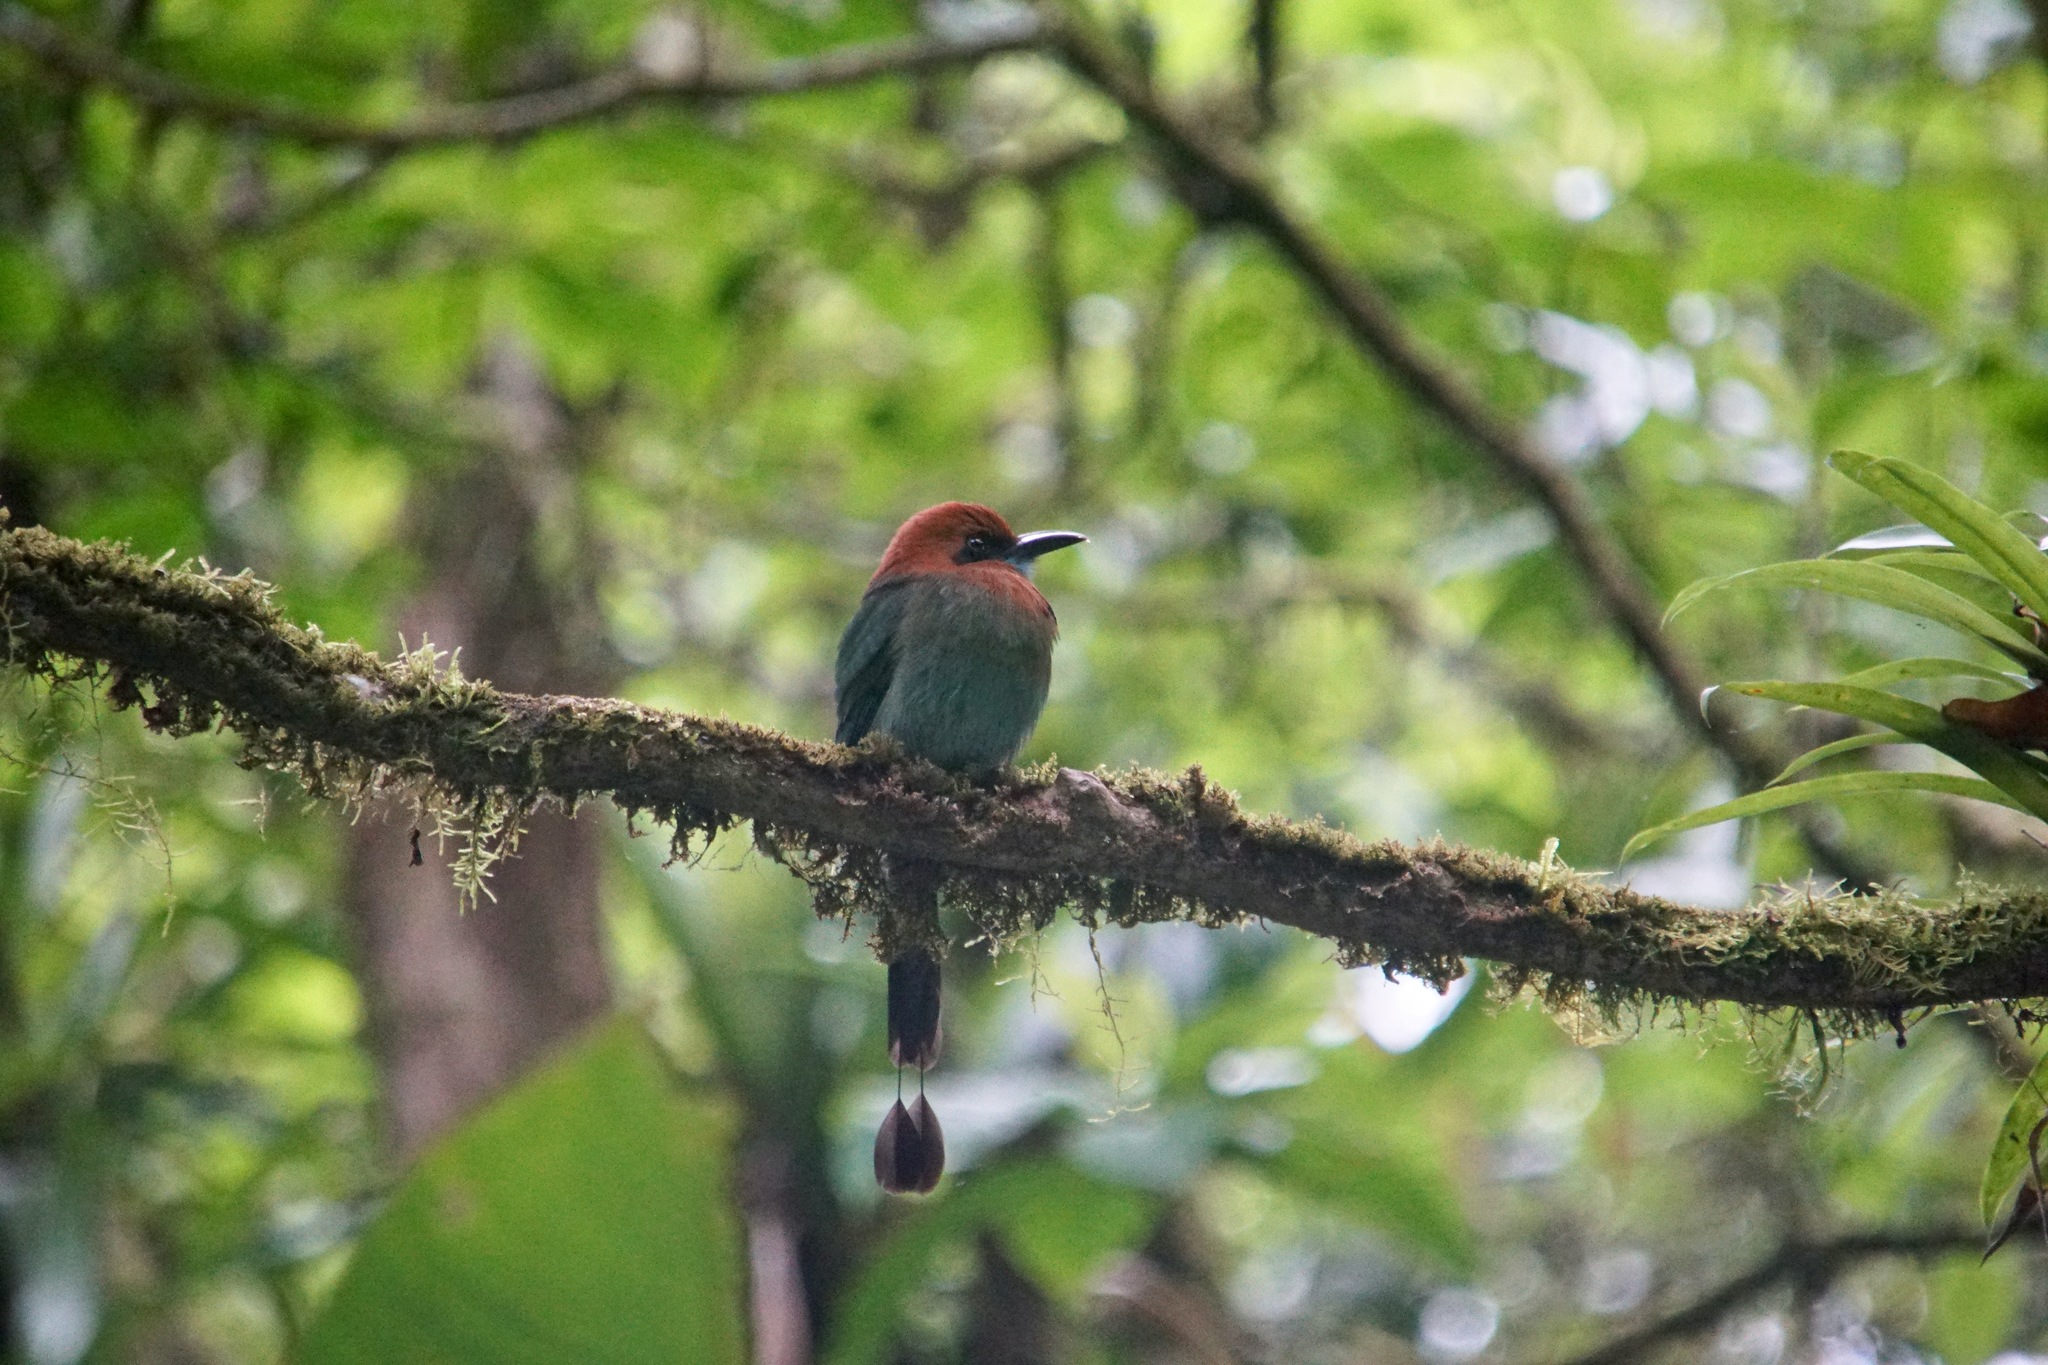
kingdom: Animalia
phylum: Chordata
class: Aves
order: Coraciiformes
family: Momotidae
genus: Electron
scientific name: Electron platyrhynchum
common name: Broad-billed motmot
